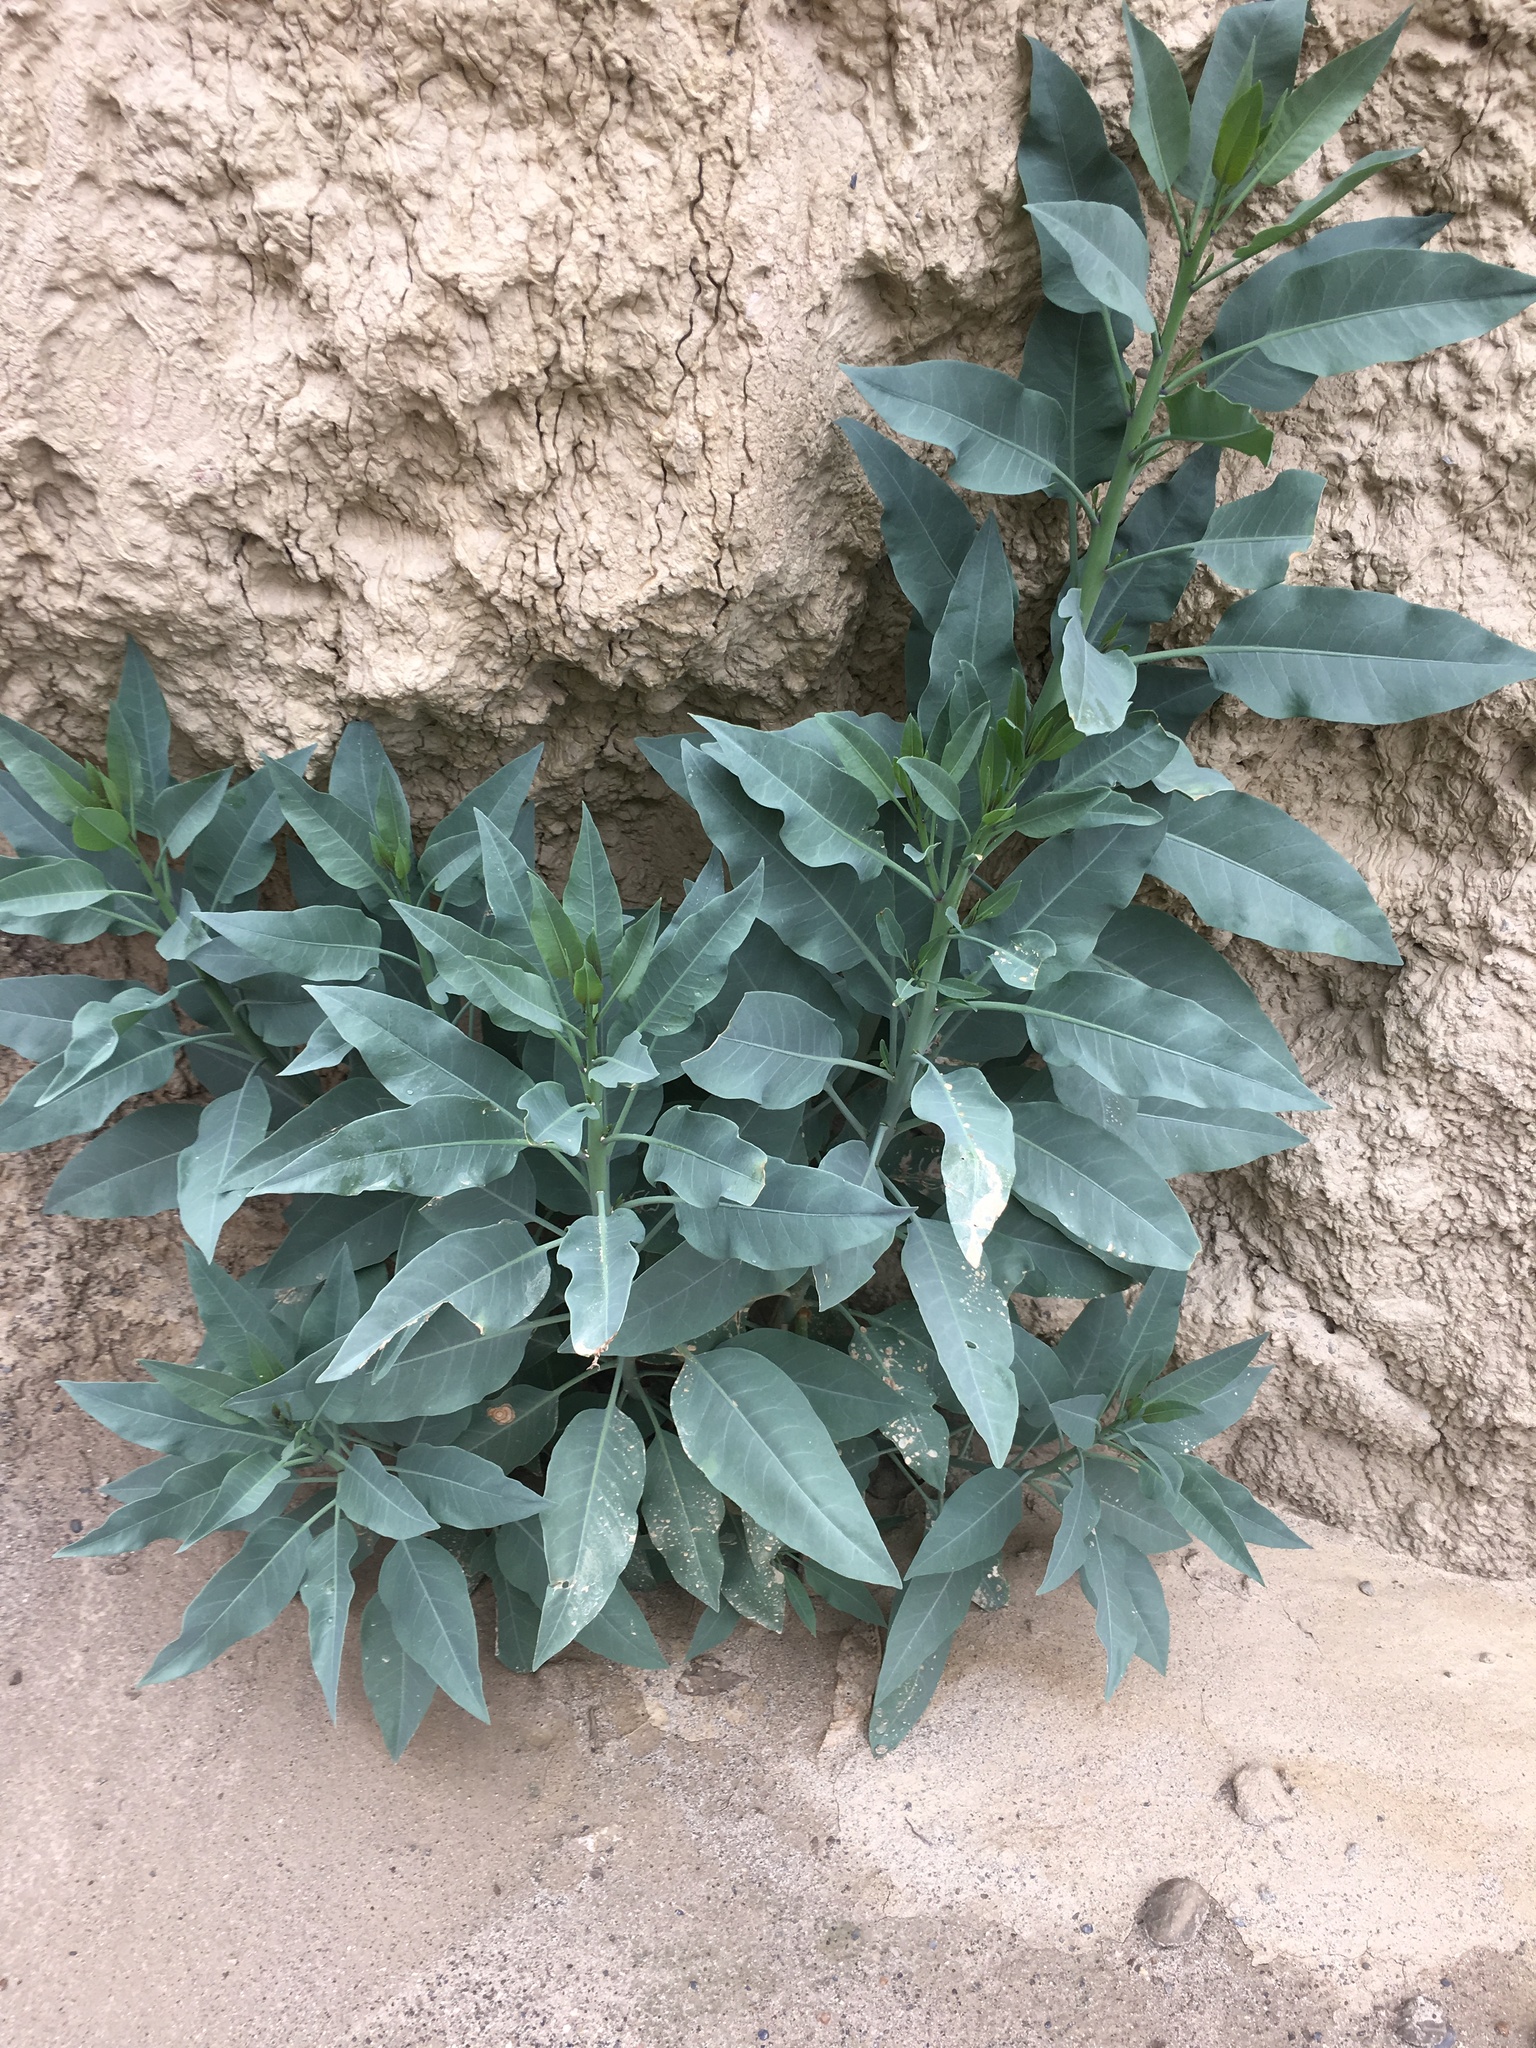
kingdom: Plantae
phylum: Tracheophyta
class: Magnoliopsida
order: Solanales
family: Solanaceae
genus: Nicotiana
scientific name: Nicotiana glauca
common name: Tree tobacco
